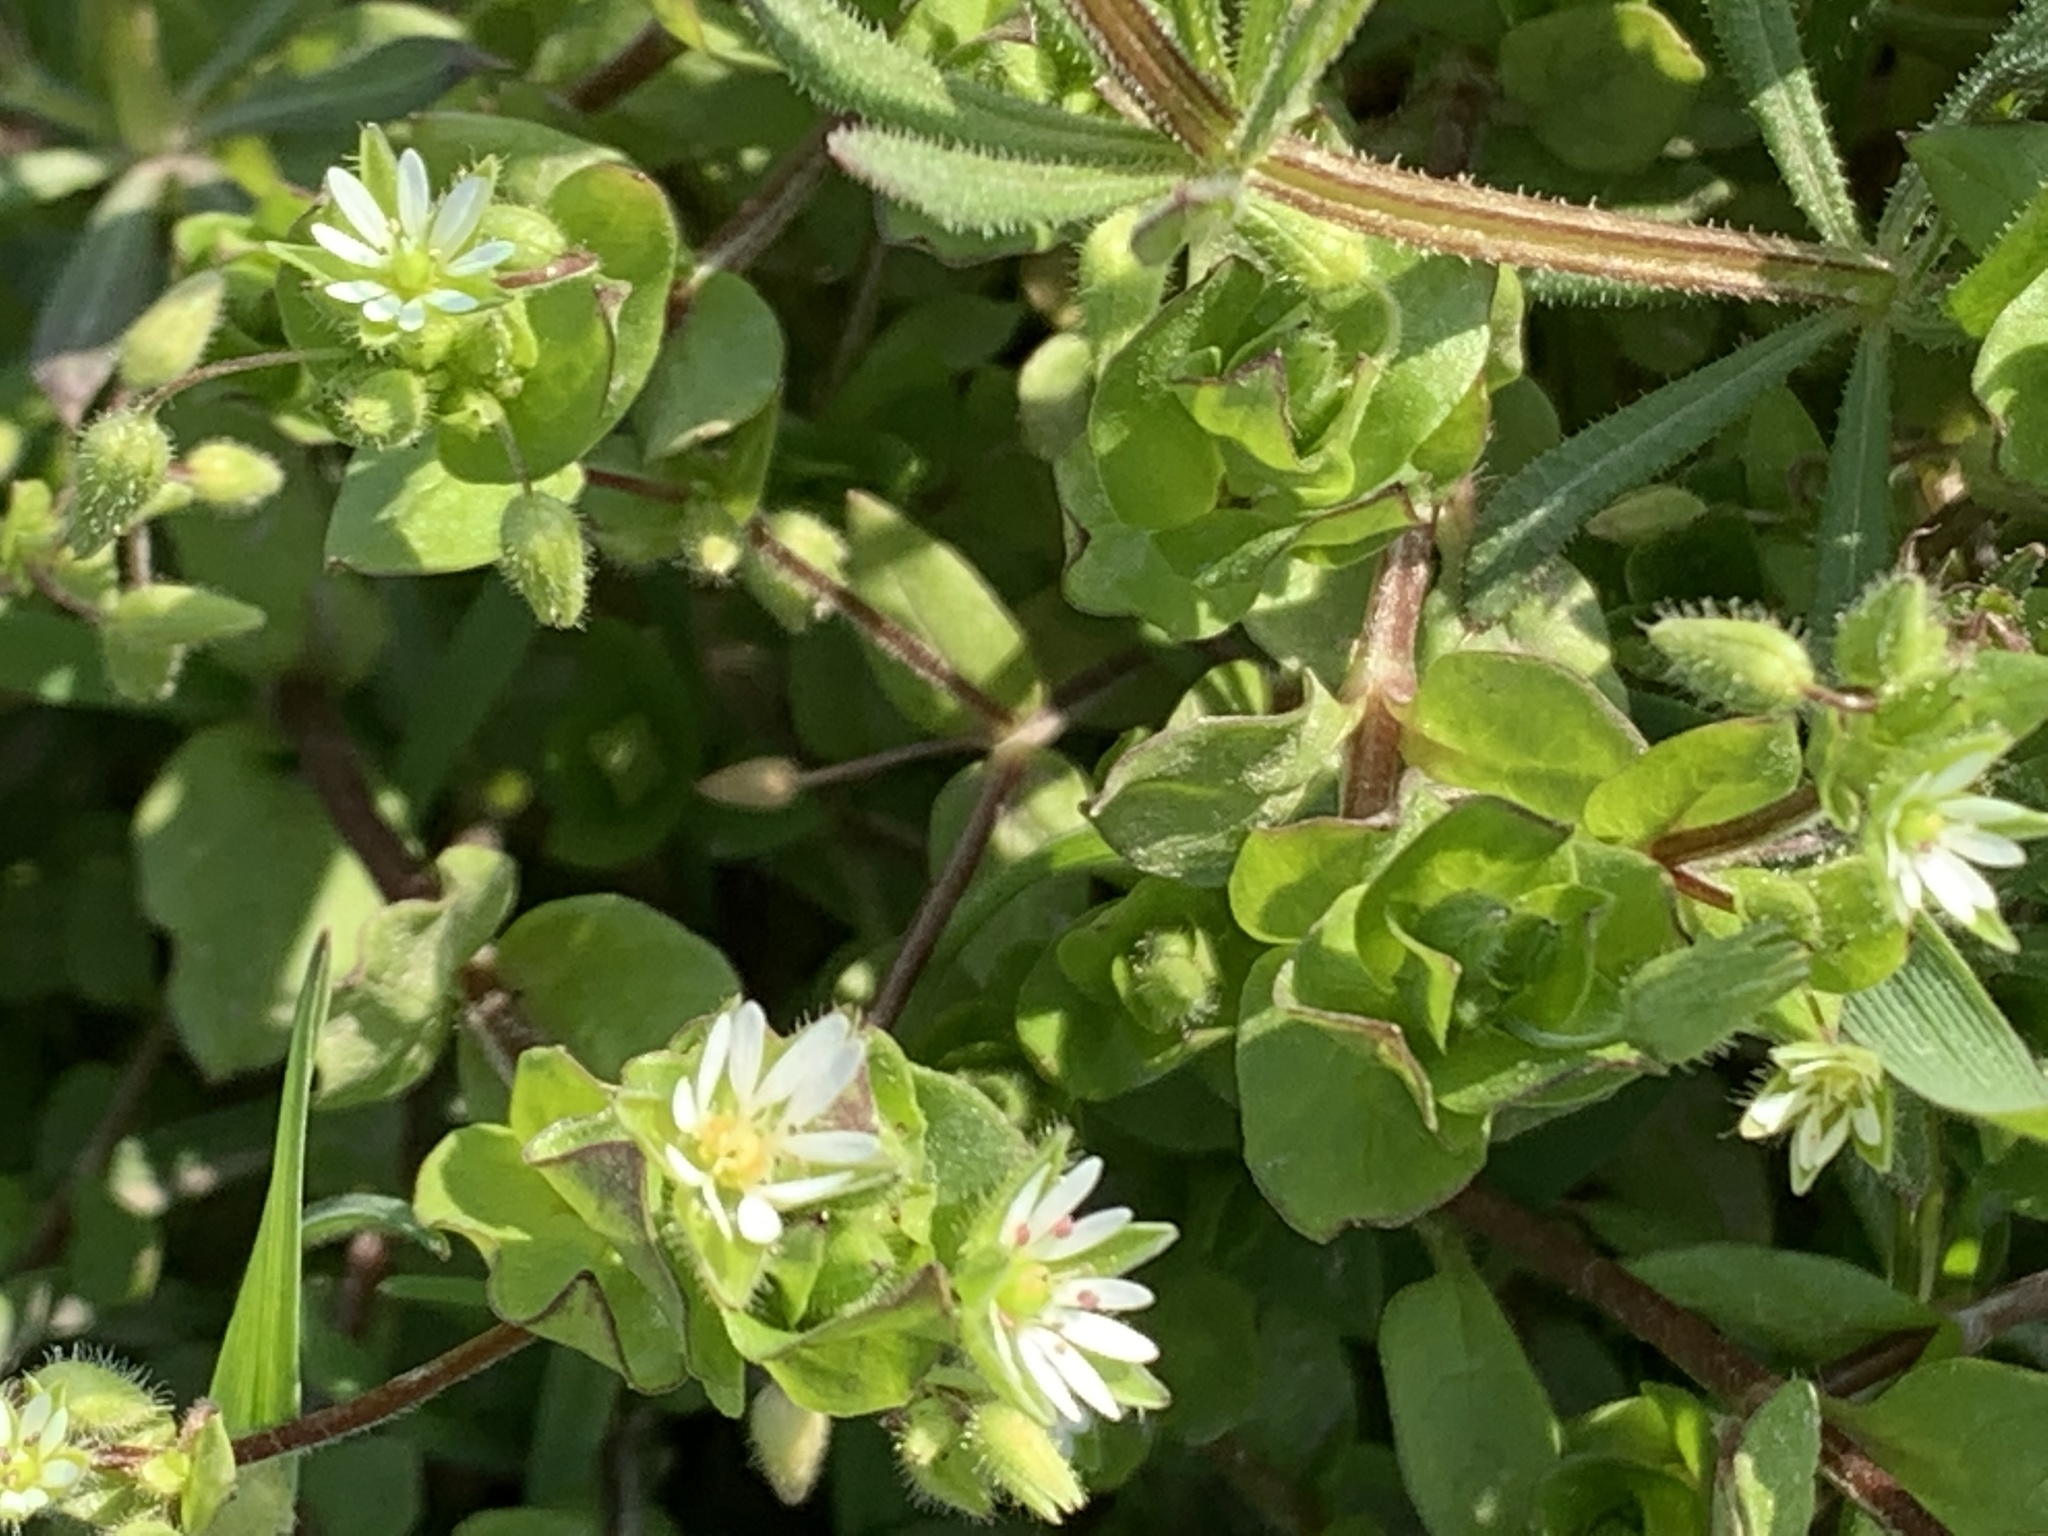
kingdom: Plantae
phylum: Tracheophyta
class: Magnoliopsida
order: Caryophyllales
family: Caryophyllaceae
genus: Stellaria
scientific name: Stellaria media
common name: Common chickweed
